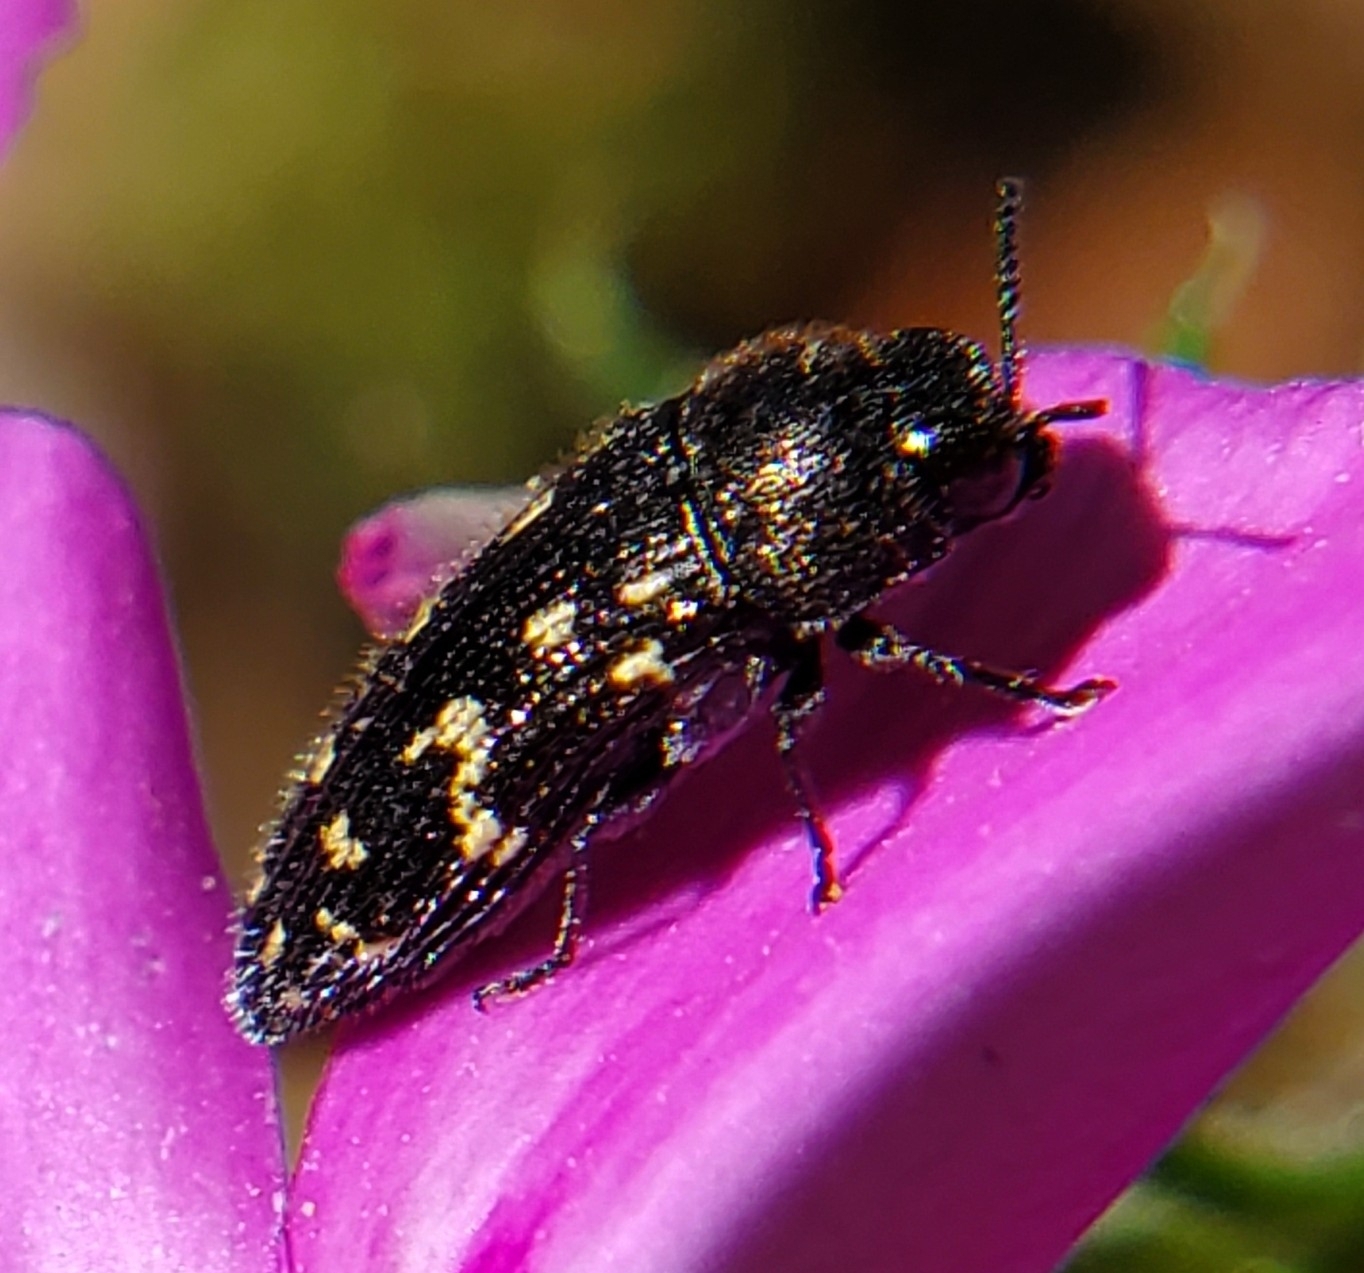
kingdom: Animalia
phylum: Arthropoda
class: Insecta
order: Coleoptera
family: Buprestidae
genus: Acmaeodera
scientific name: Acmaeodera tubulus
